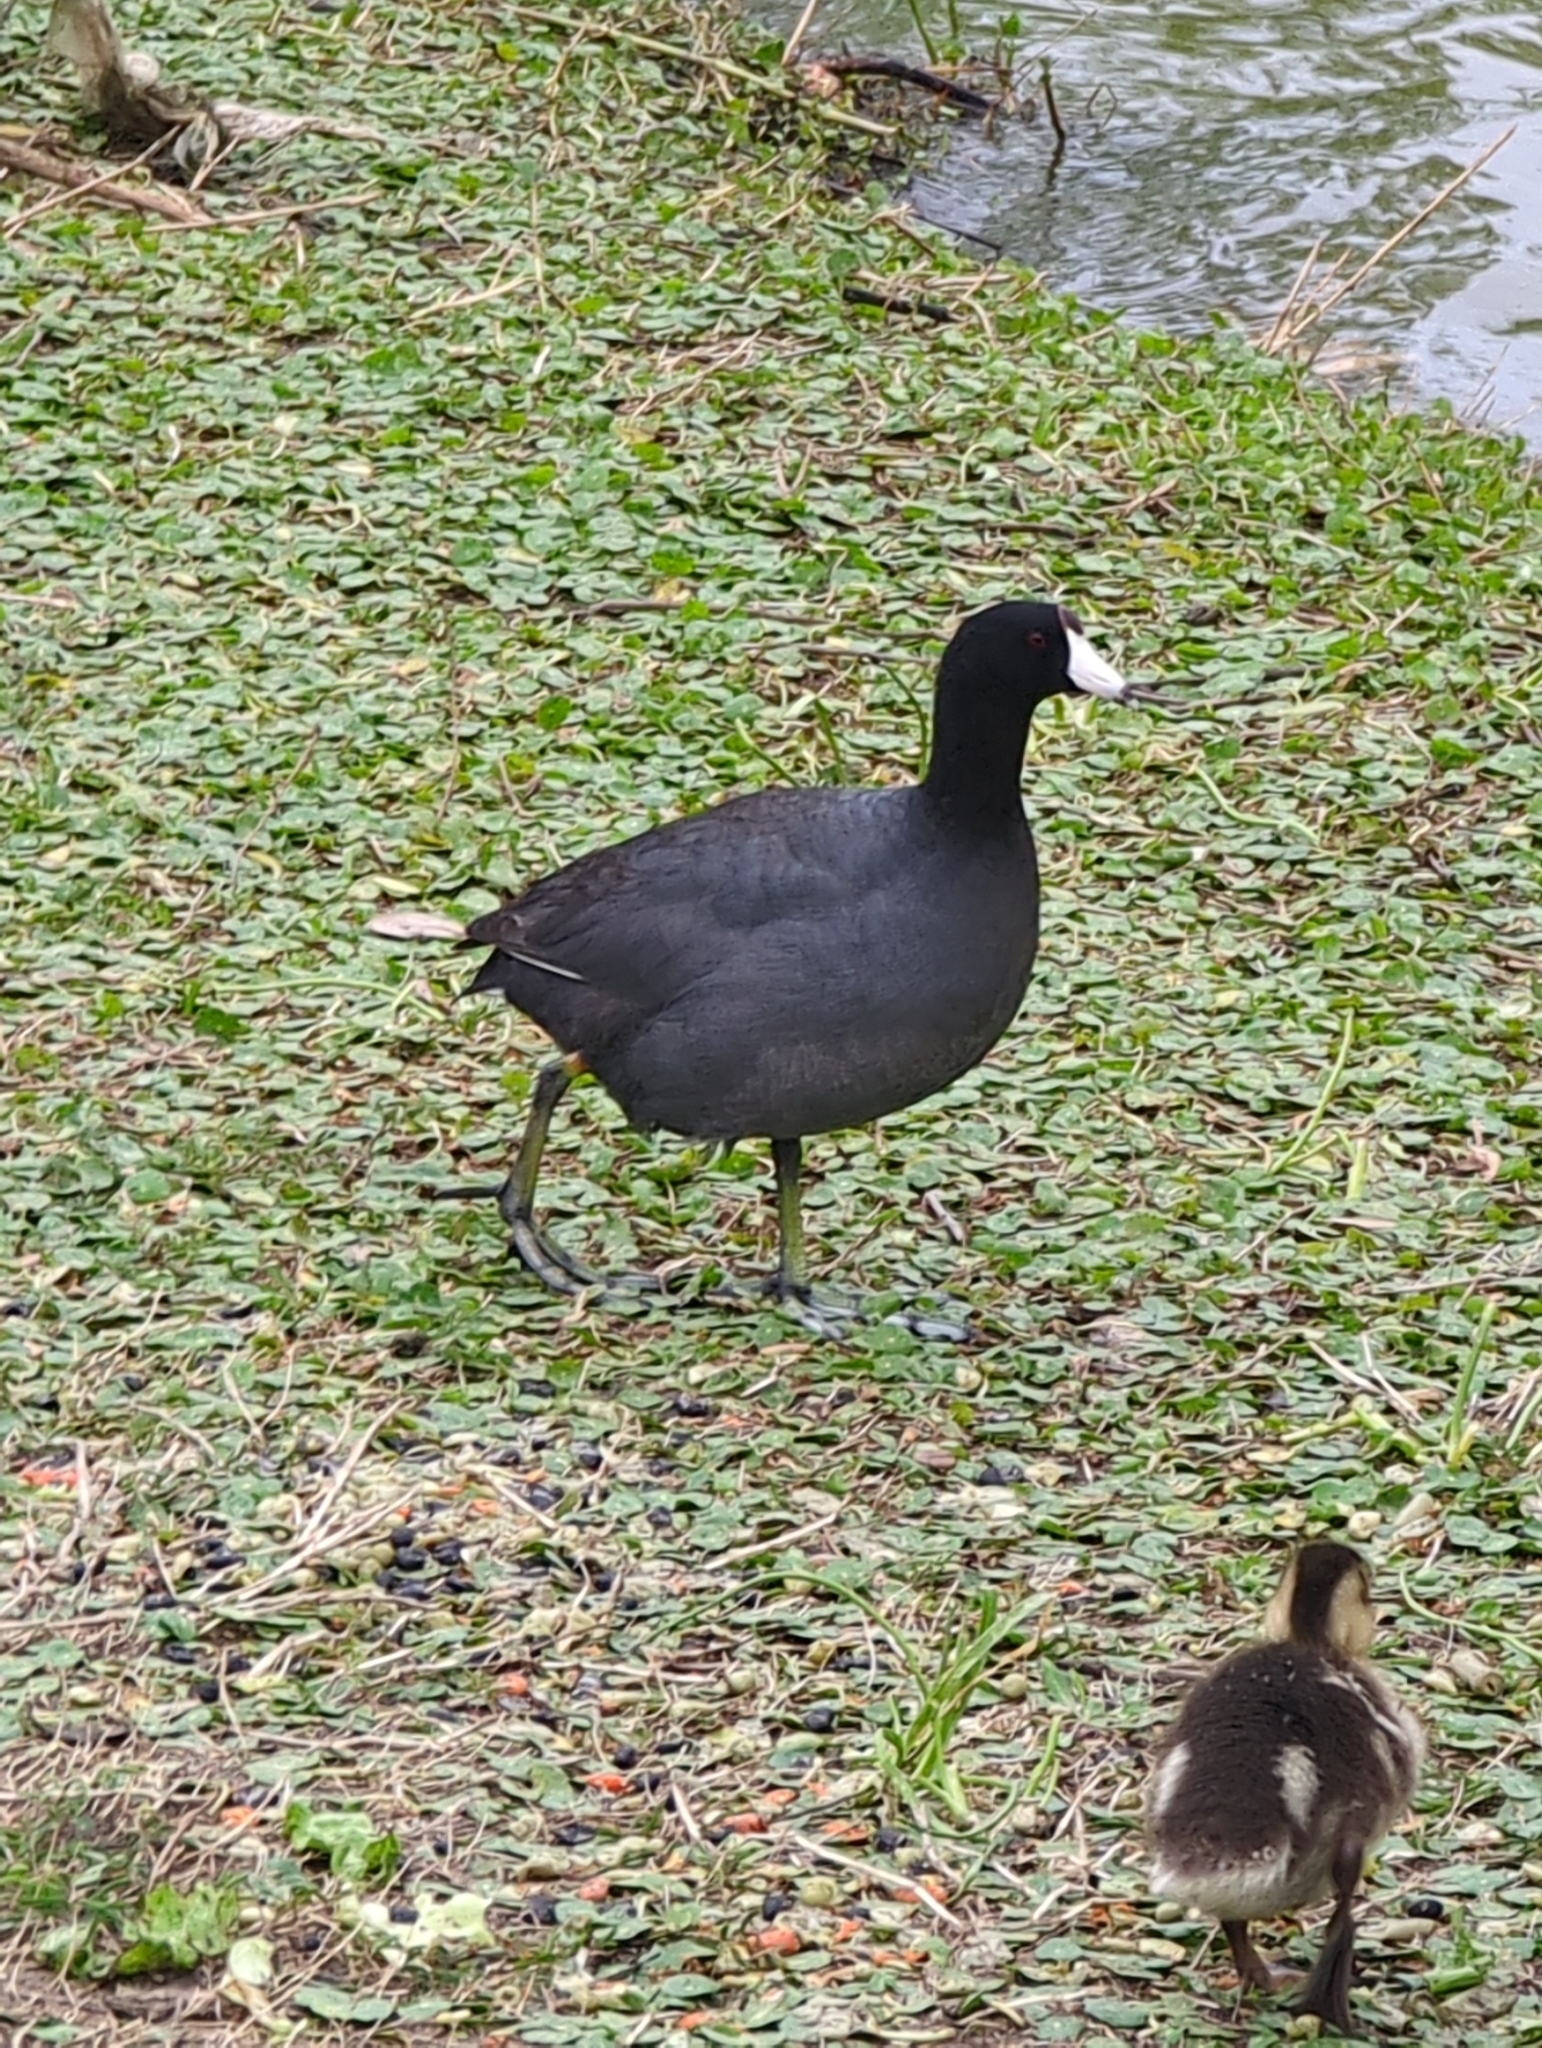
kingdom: Animalia
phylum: Chordata
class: Aves
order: Gruiformes
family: Rallidae
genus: Fulica
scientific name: Fulica americana
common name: American coot
